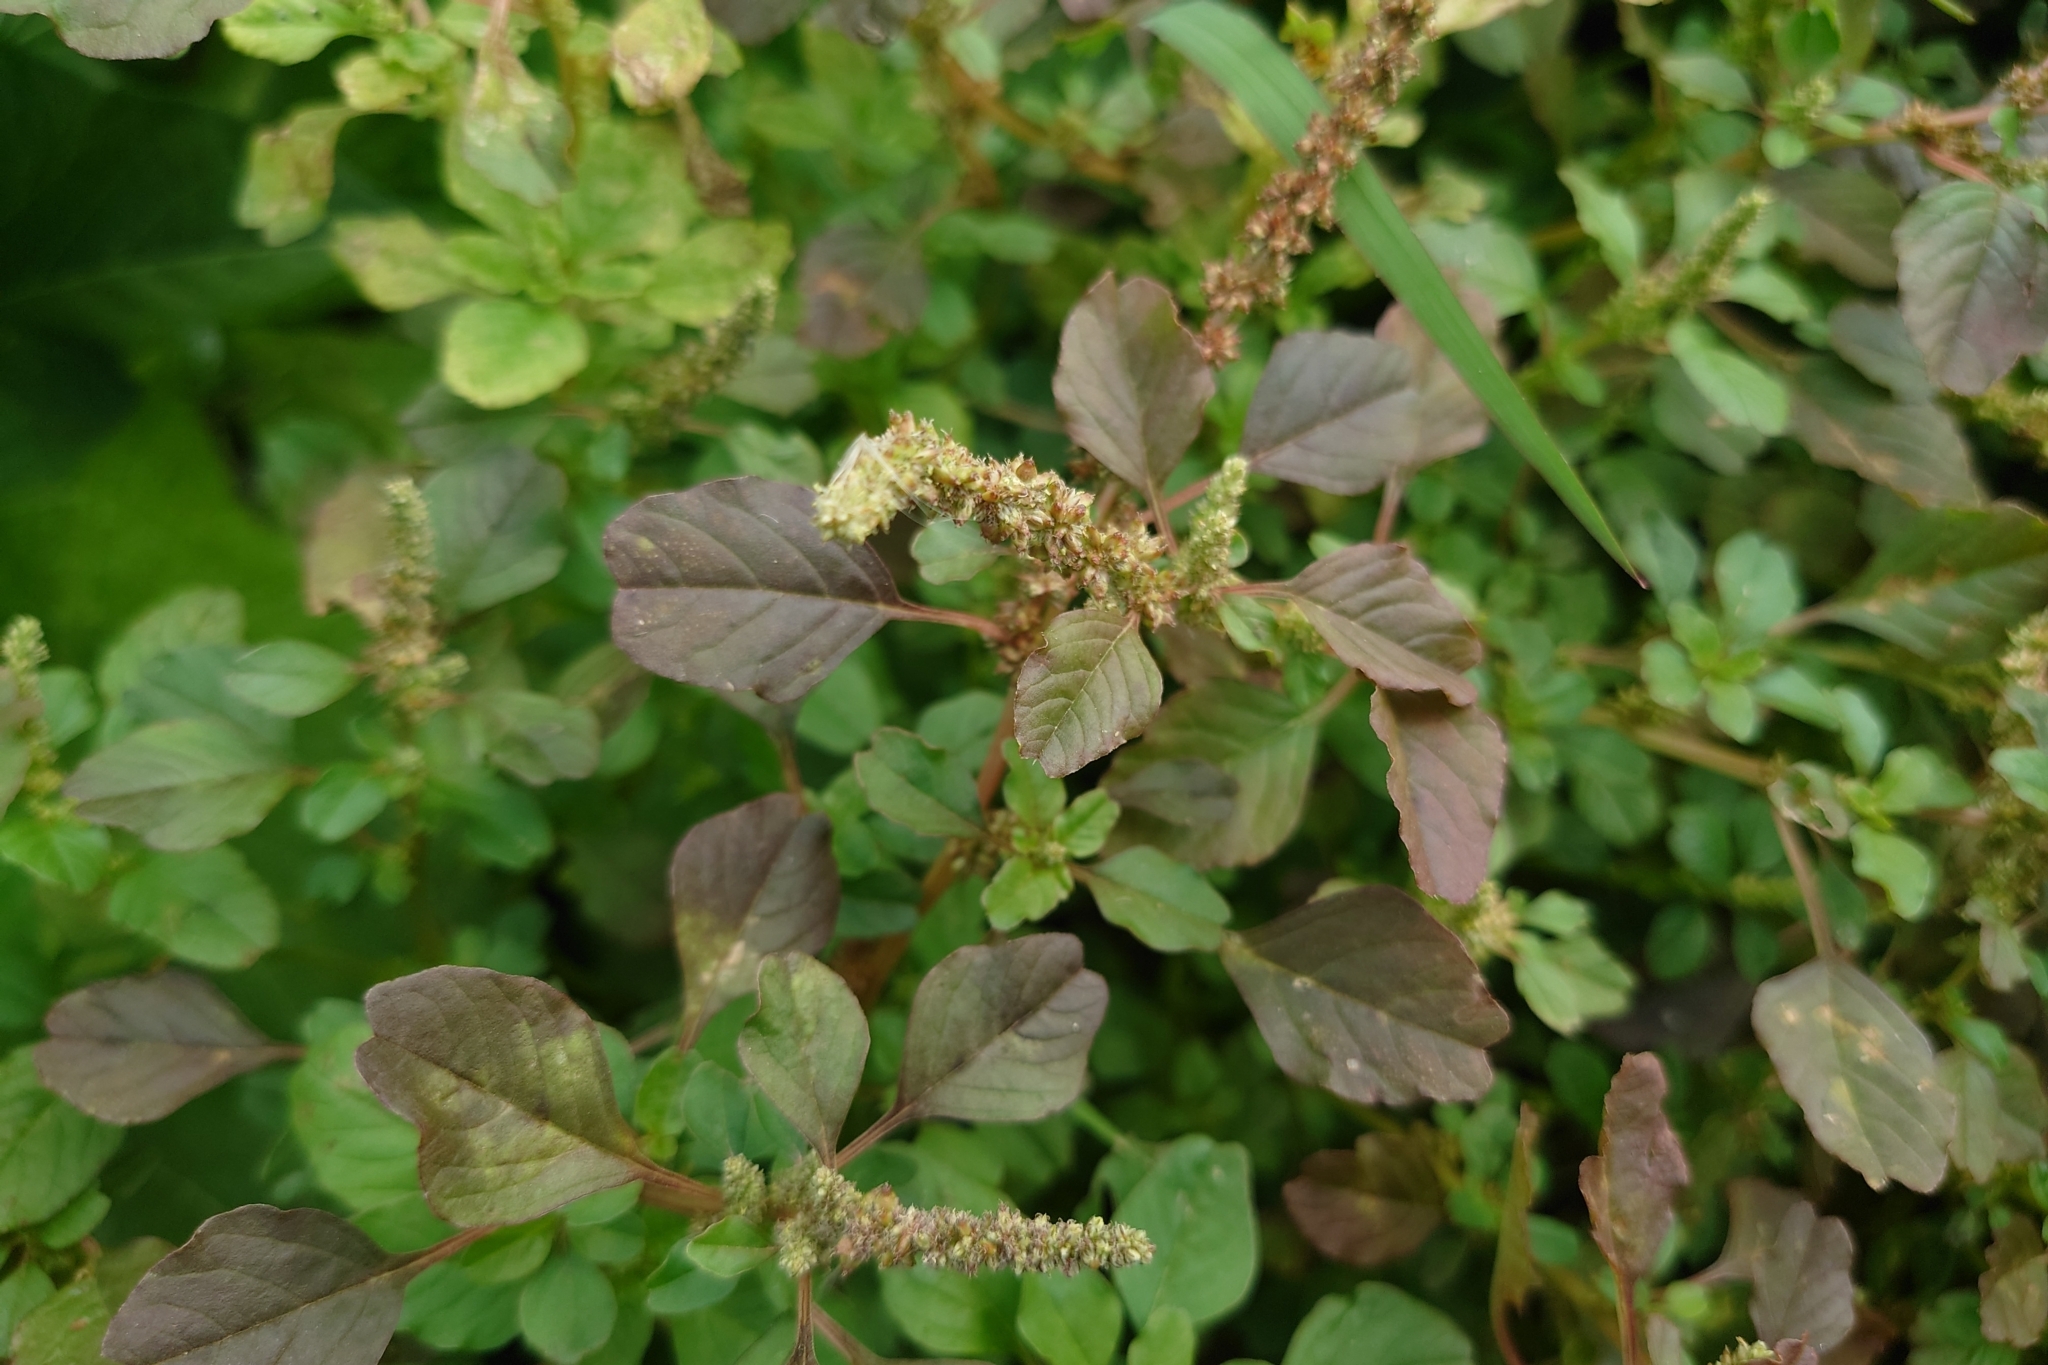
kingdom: Plantae
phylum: Tracheophyta
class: Magnoliopsida
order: Caryophyllales
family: Amaranthaceae
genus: Amaranthus
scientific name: Amaranthus blitum
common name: Purple amaranth
